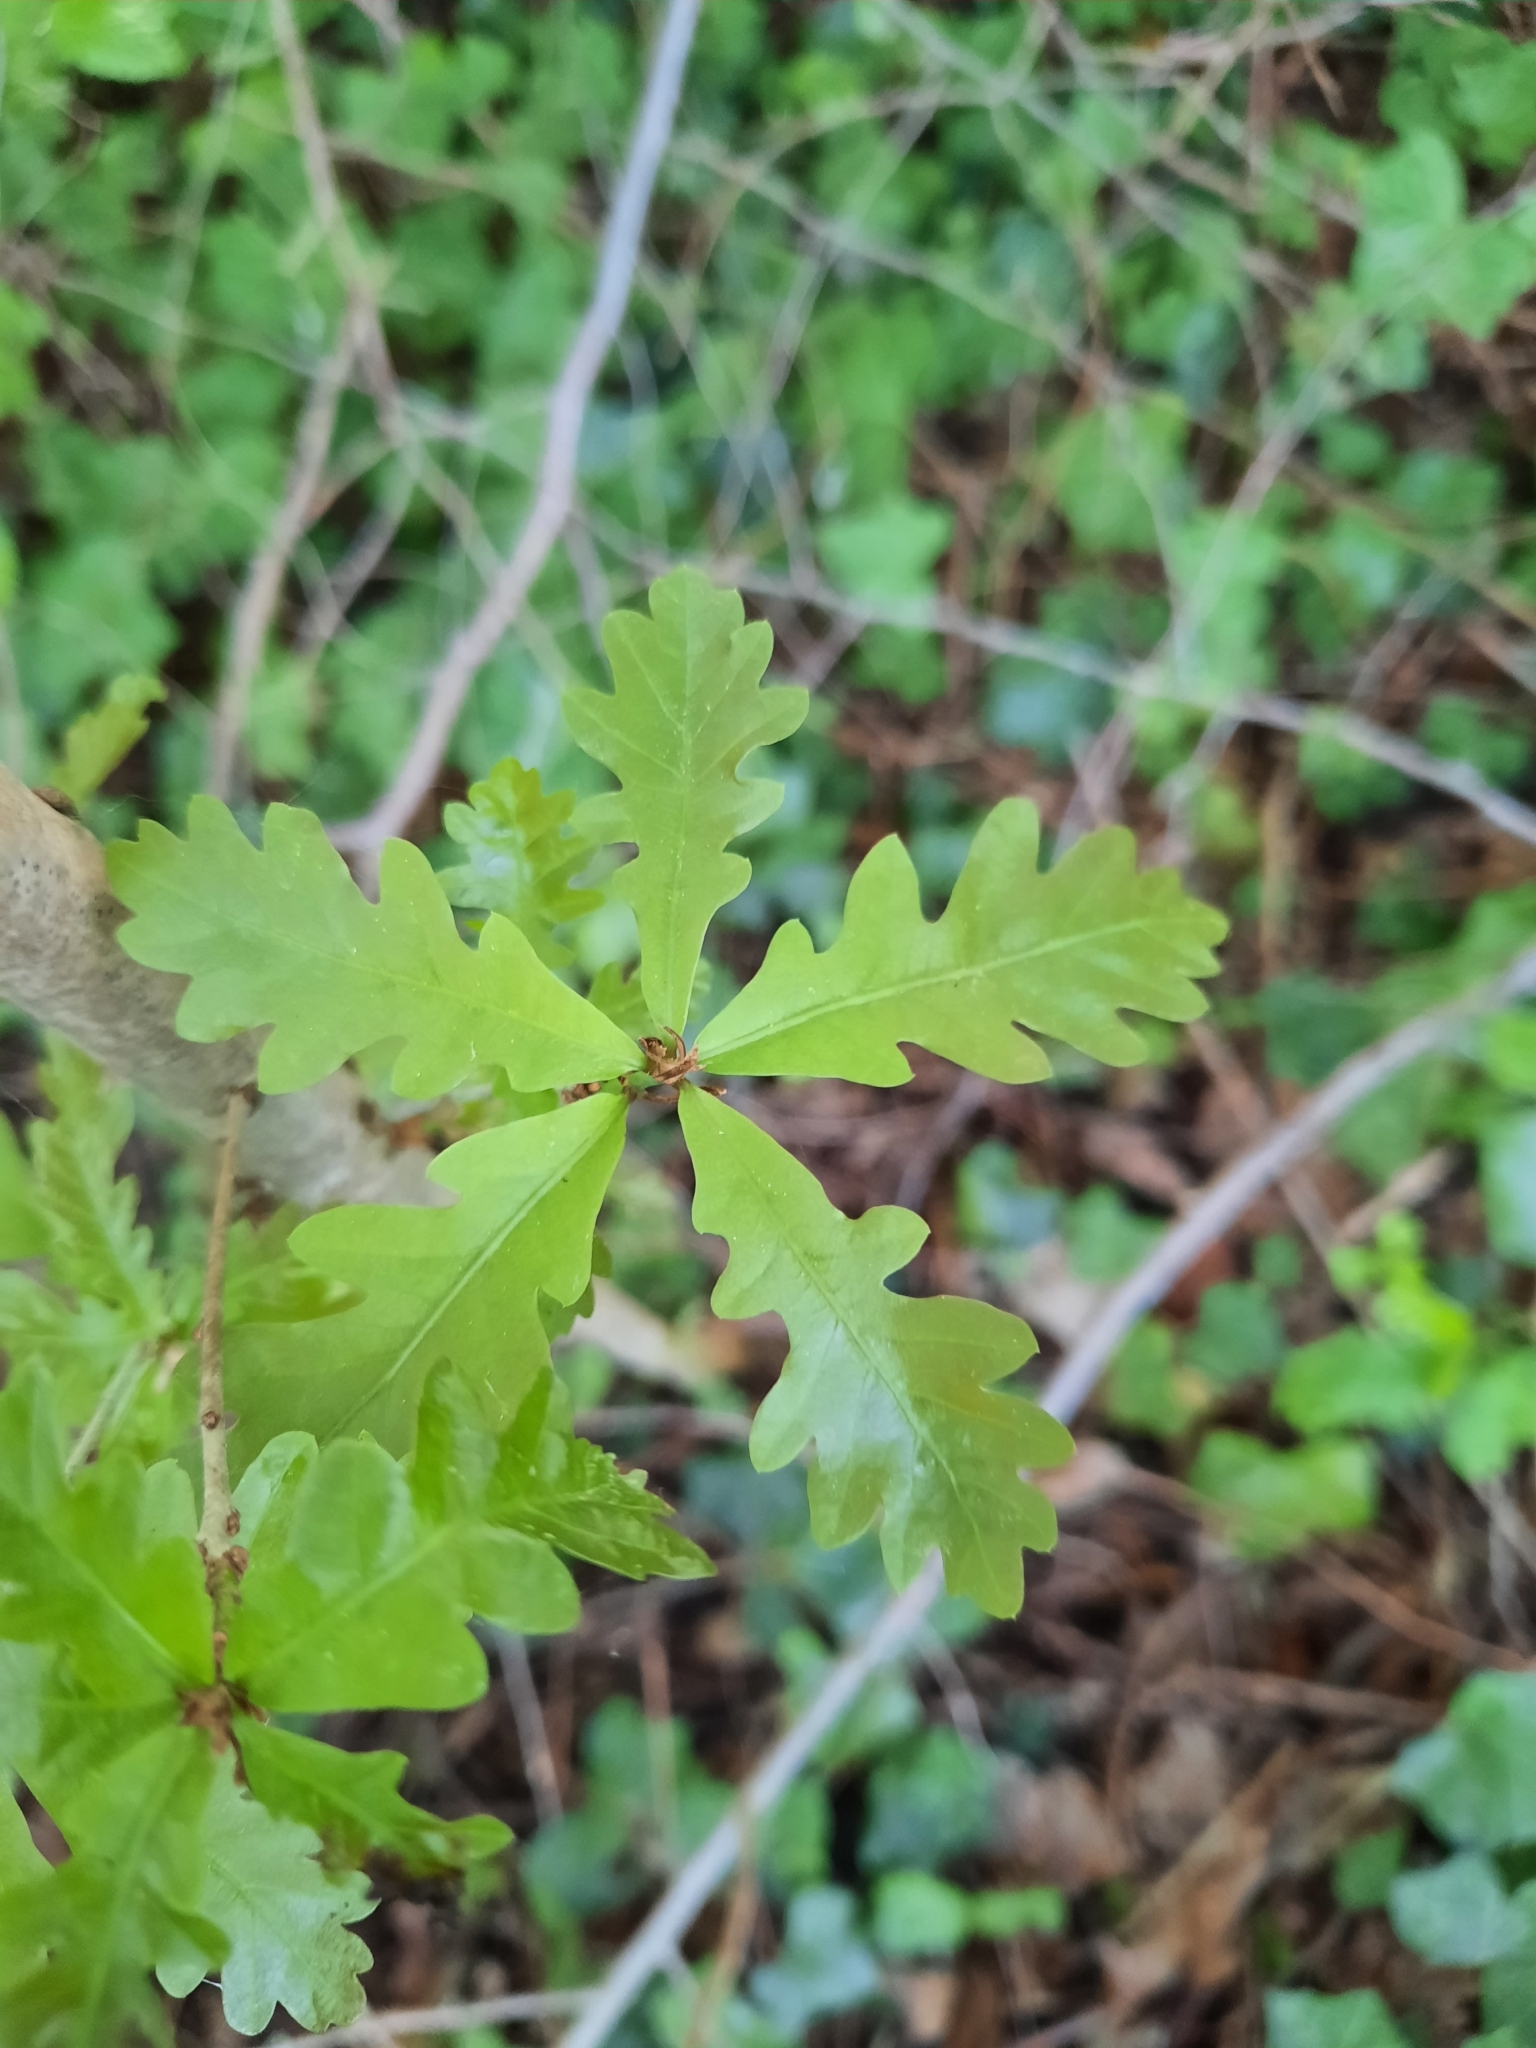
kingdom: Plantae
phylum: Tracheophyta
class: Magnoliopsida
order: Fagales
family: Fagaceae
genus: Quercus
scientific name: Quercus robur
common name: Pedunculate oak
